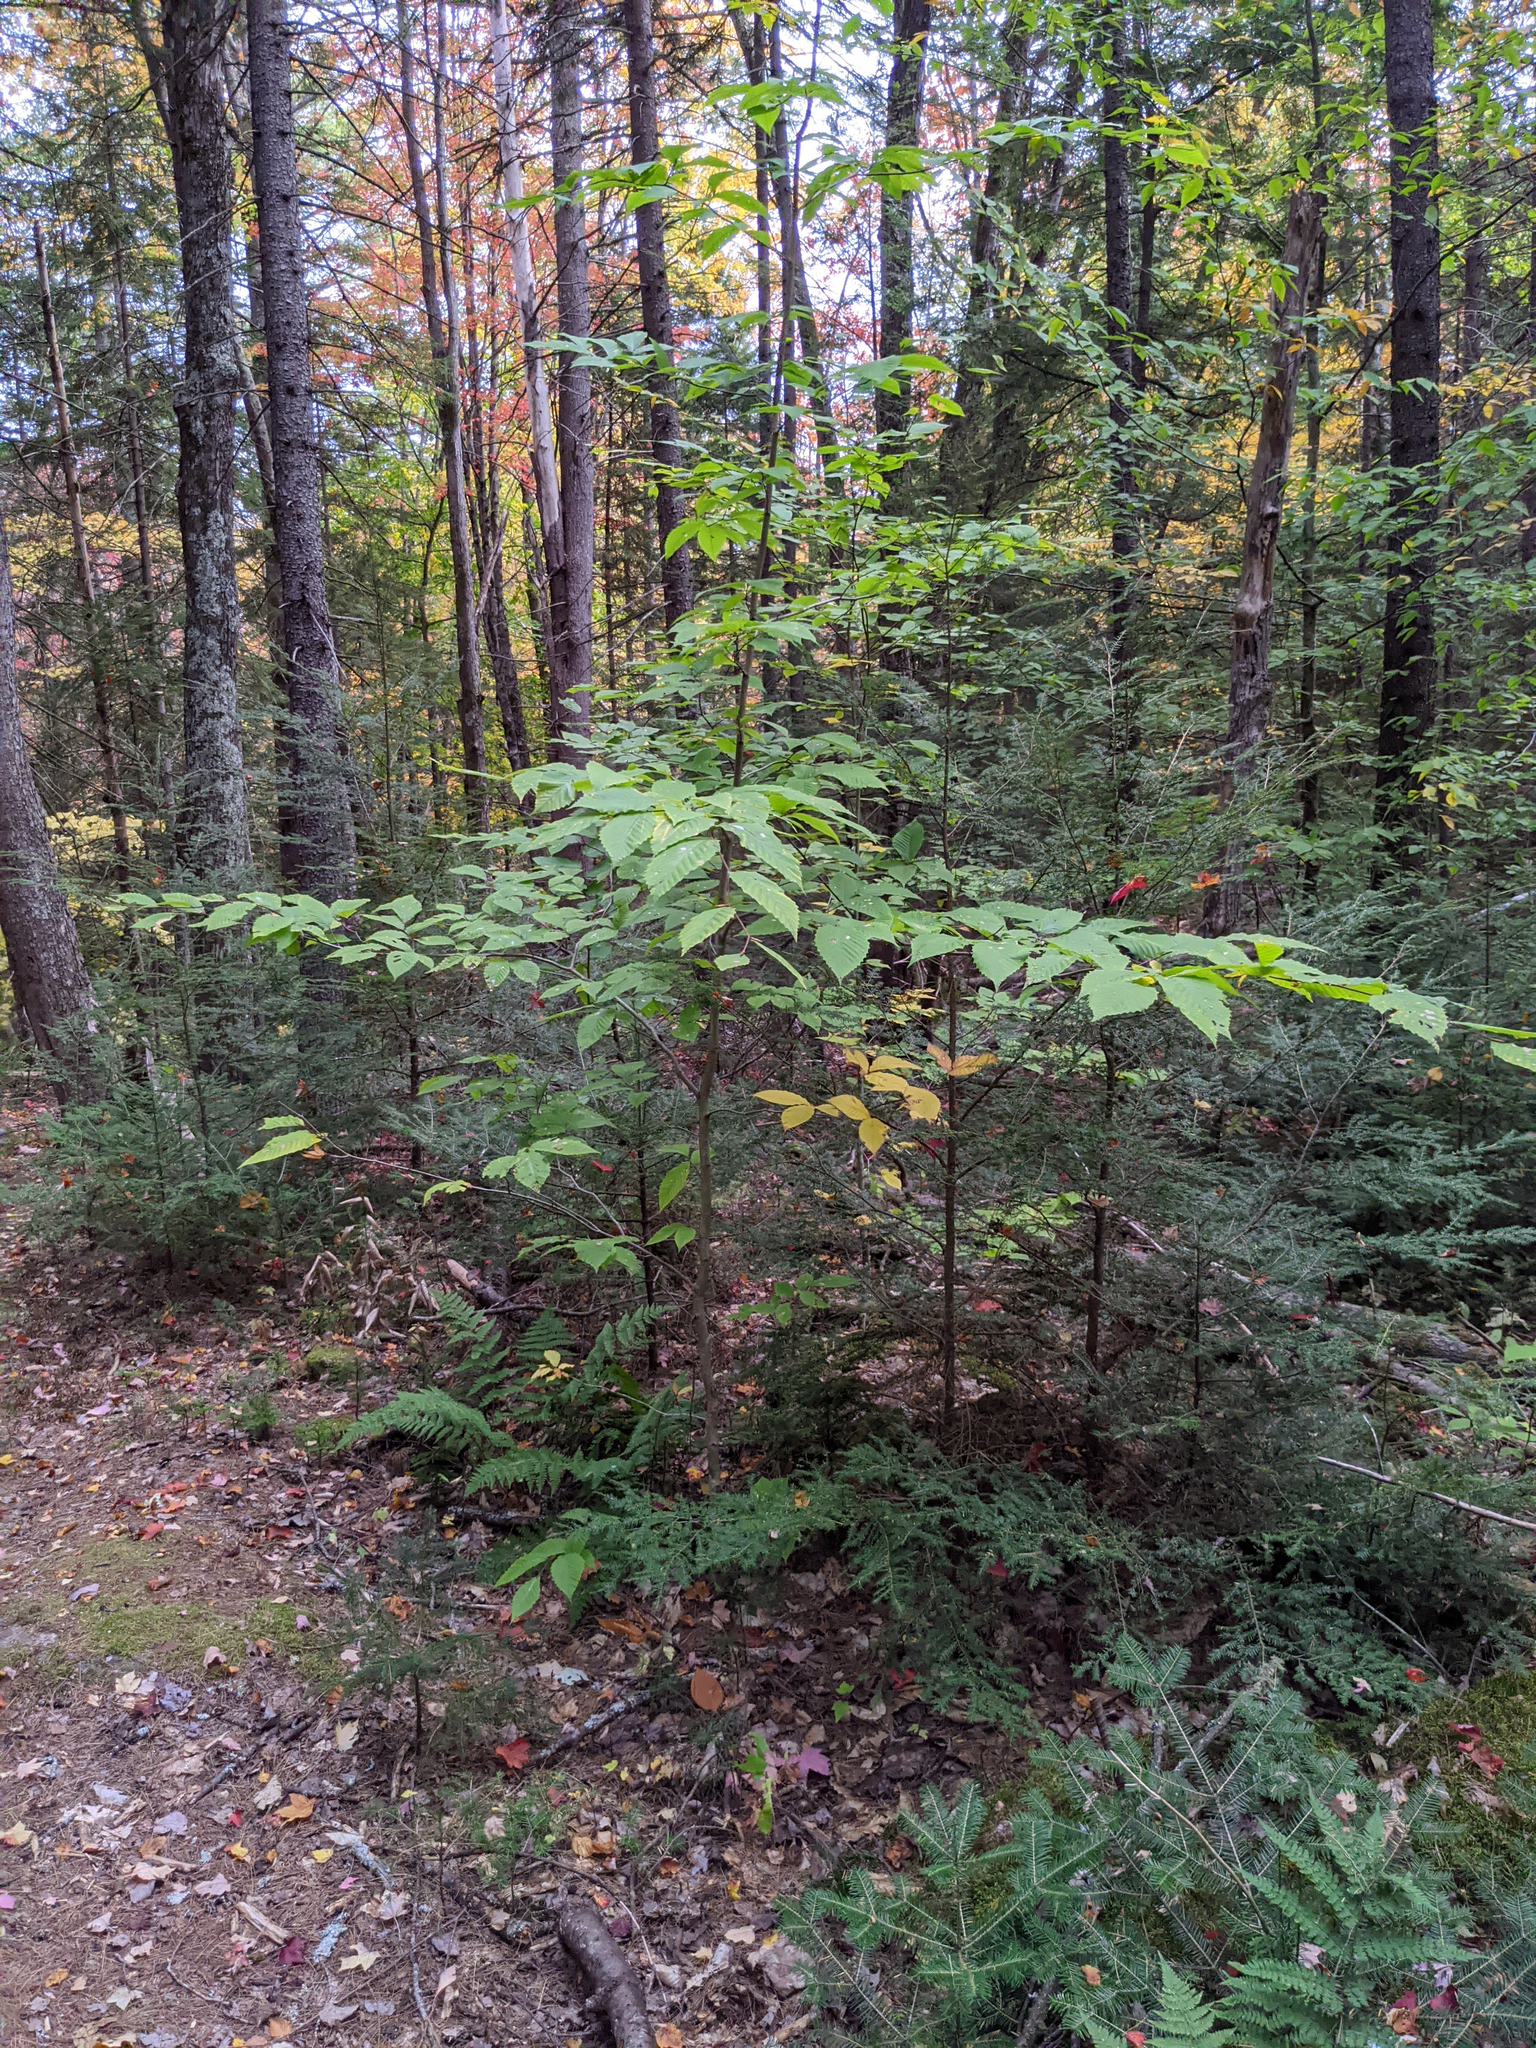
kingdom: Plantae
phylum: Tracheophyta
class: Magnoliopsida
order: Fagales
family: Fagaceae
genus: Fagus
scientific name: Fagus grandifolia
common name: American beech
